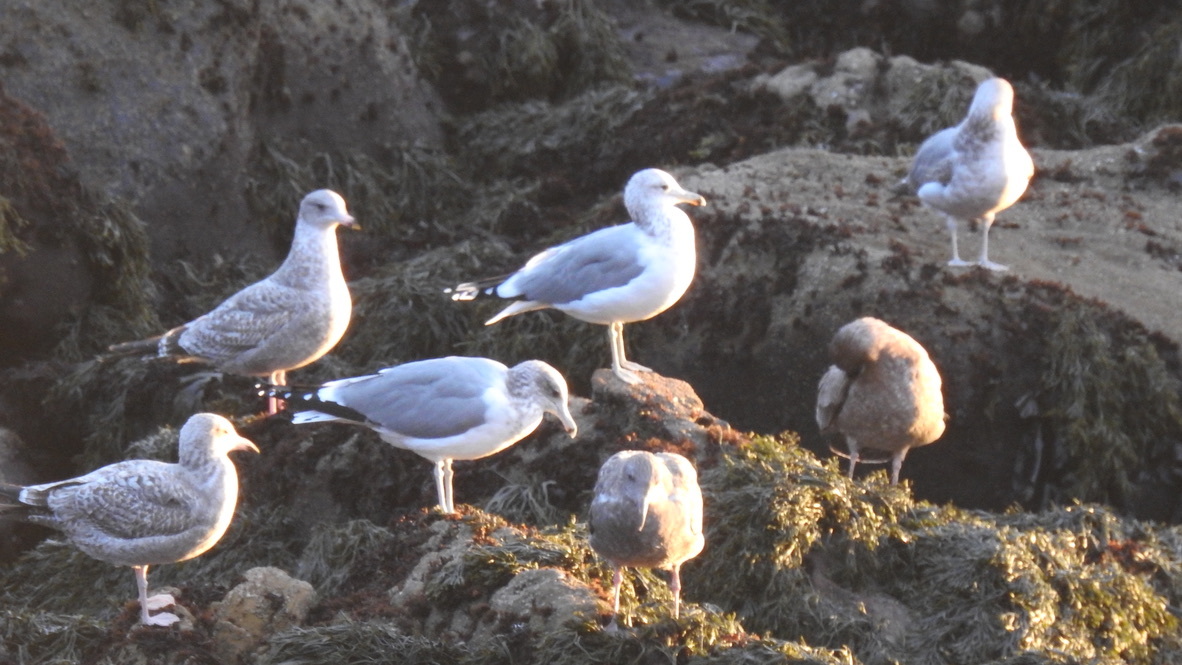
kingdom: Animalia
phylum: Chordata
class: Aves
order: Charadriiformes
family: Laridae
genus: Larus
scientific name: Larus californicus
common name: California gull
